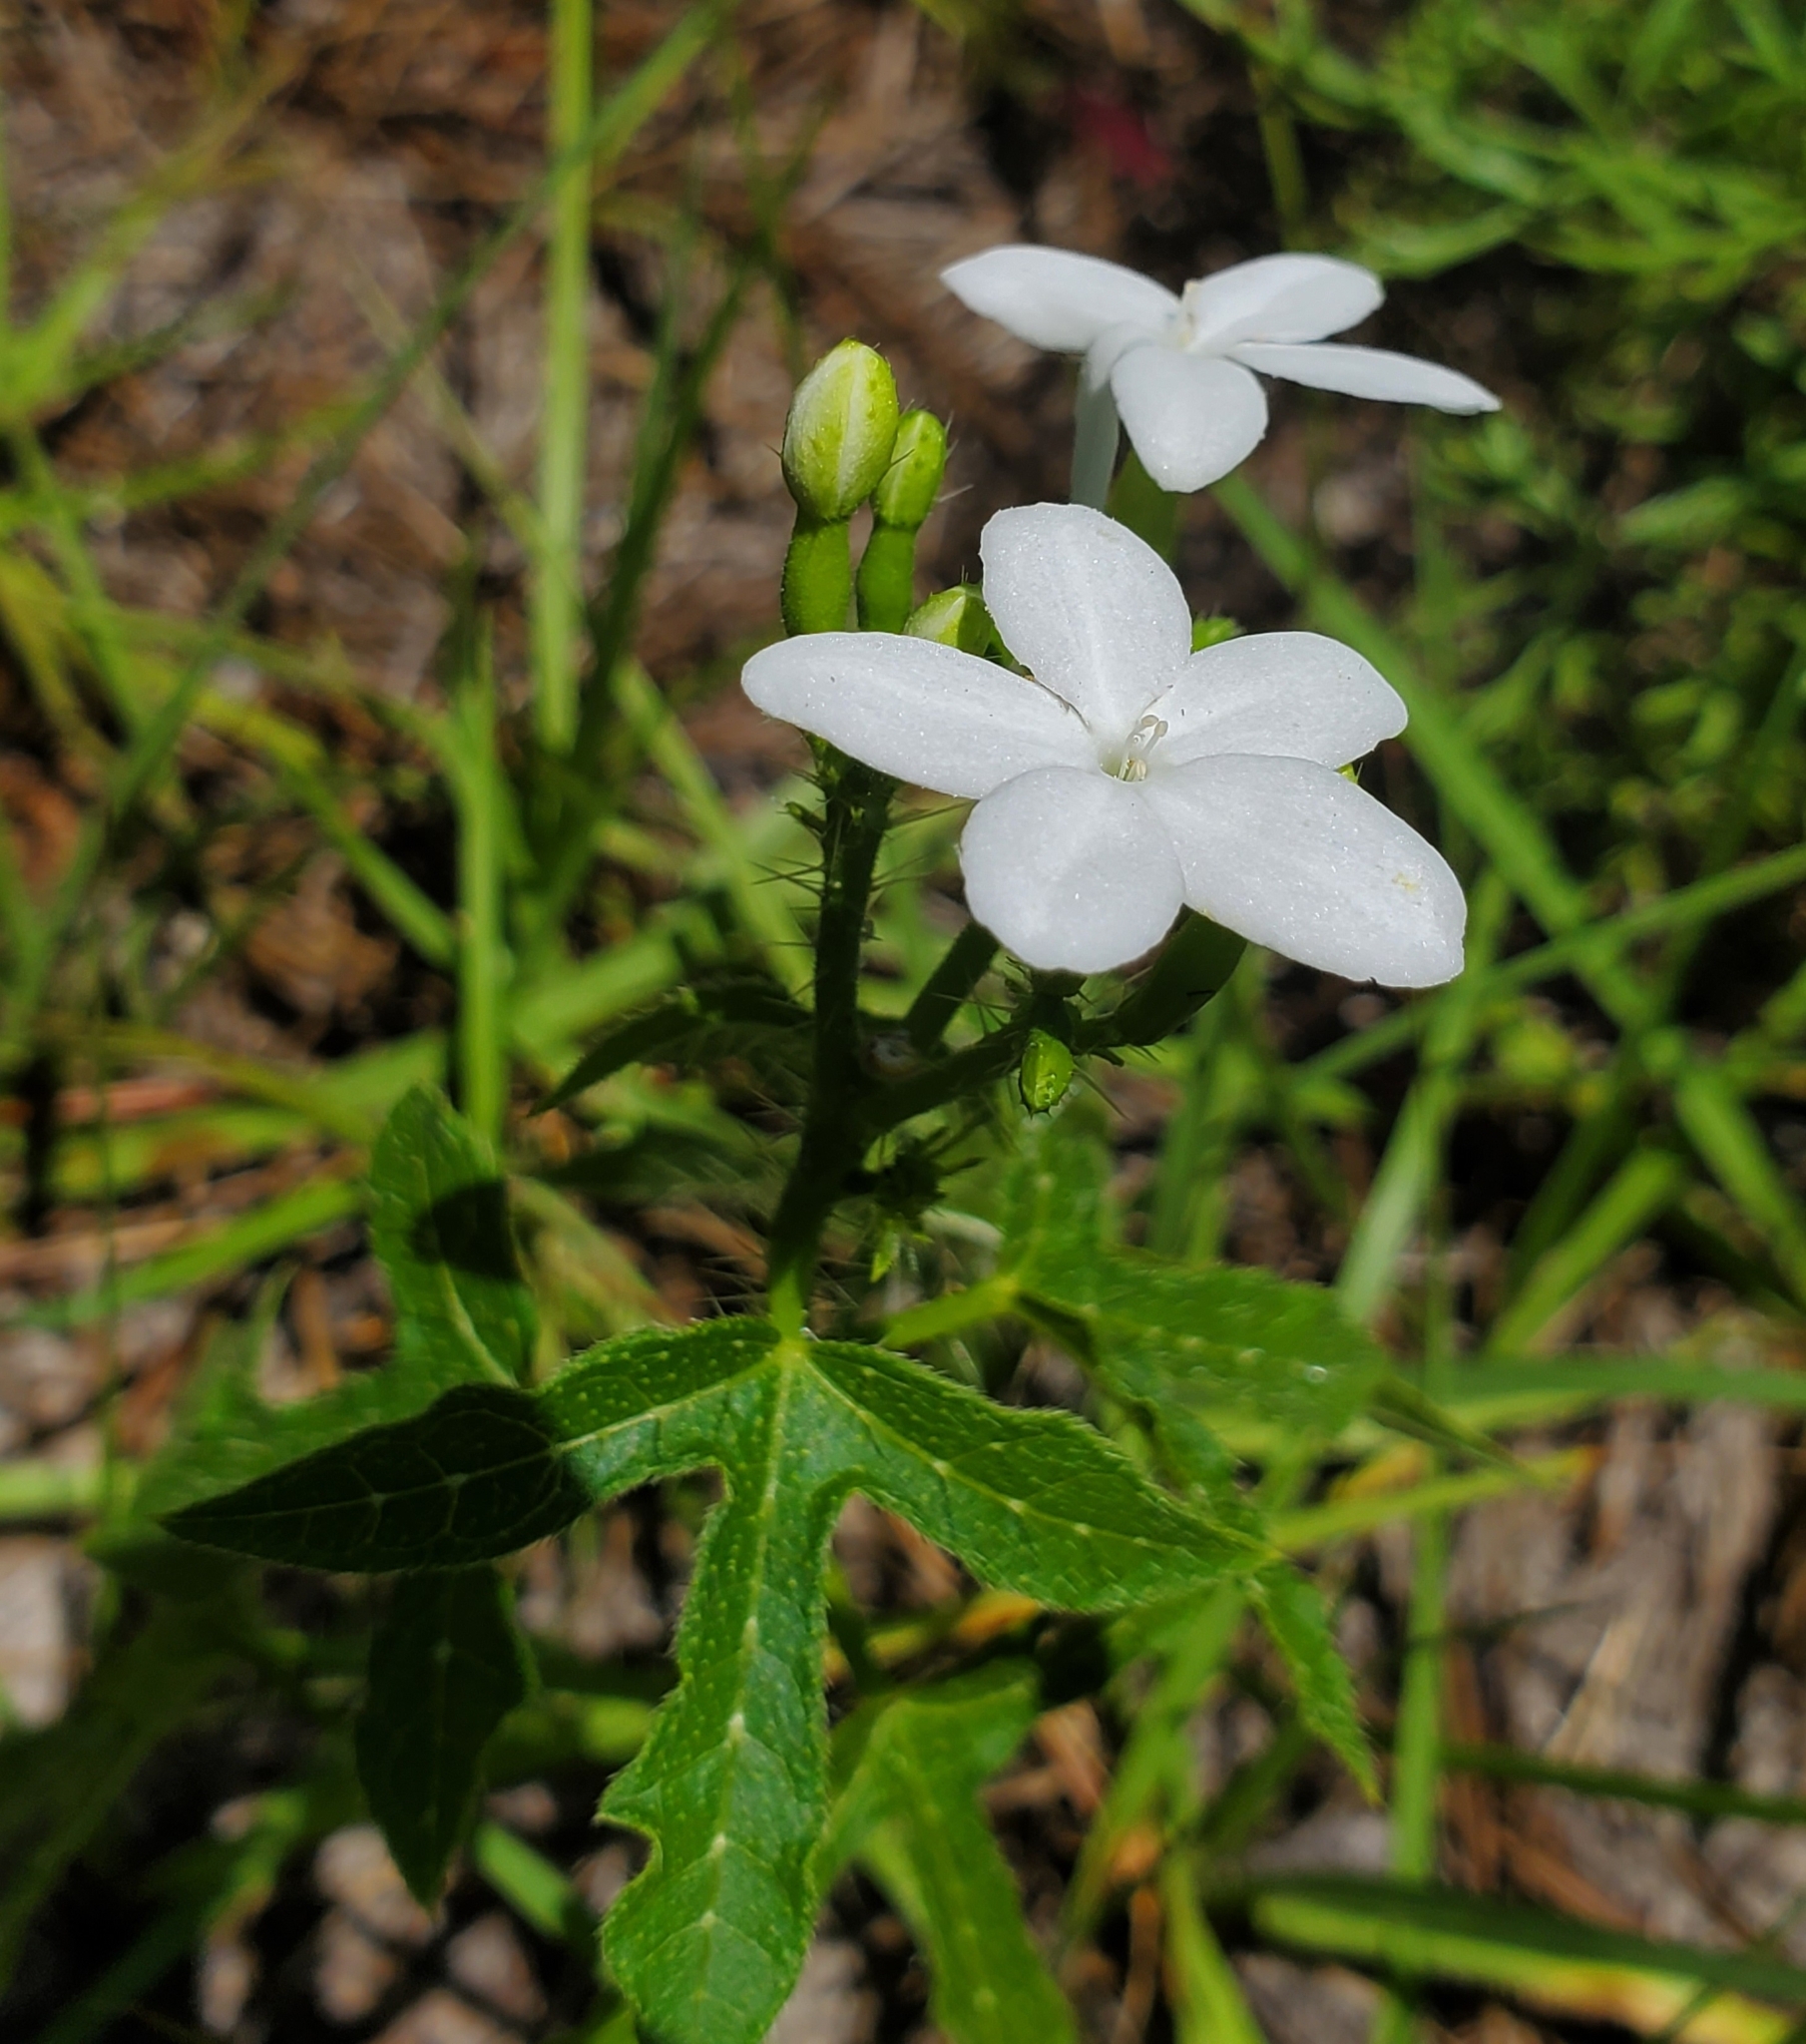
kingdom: Plantae
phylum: Tracheophyta
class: Magnoliopsida
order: Malpighiales
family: Euphorbiaceae
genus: Cnidoscolus
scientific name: Cnidoscolus stimulosus
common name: Bull-nettle
